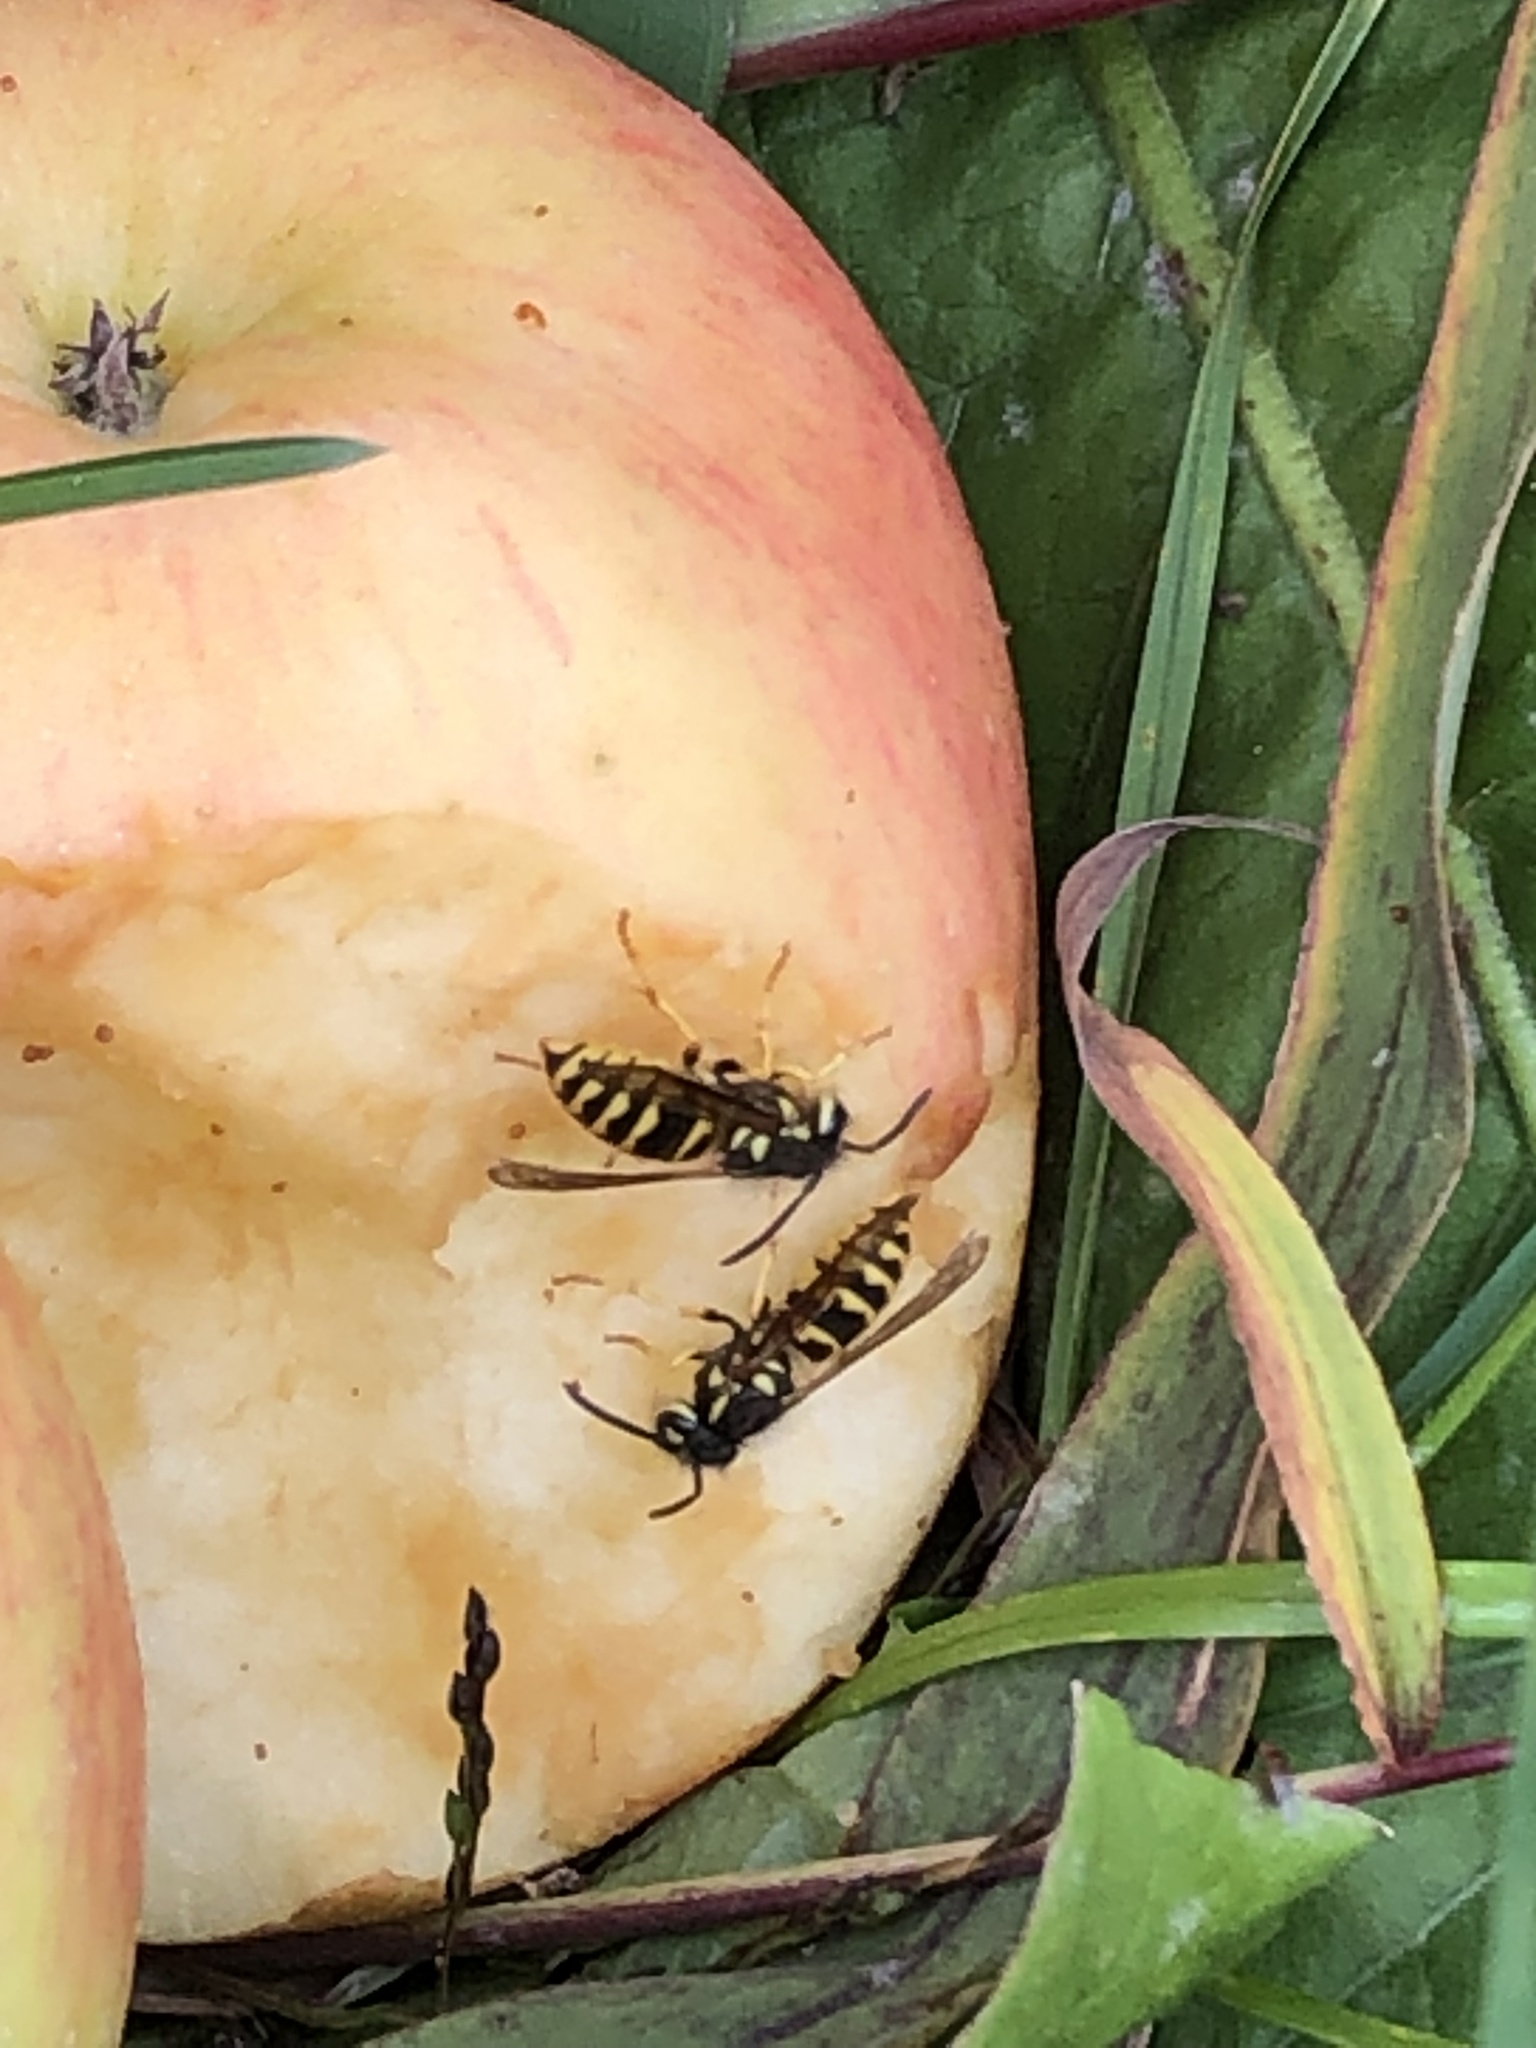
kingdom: Animalia
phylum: Arthropoda
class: Insecta
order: Hymenoptera
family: Vespidae
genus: Vespula
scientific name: Vespula flavopilosa
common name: Downy yellowjacket
